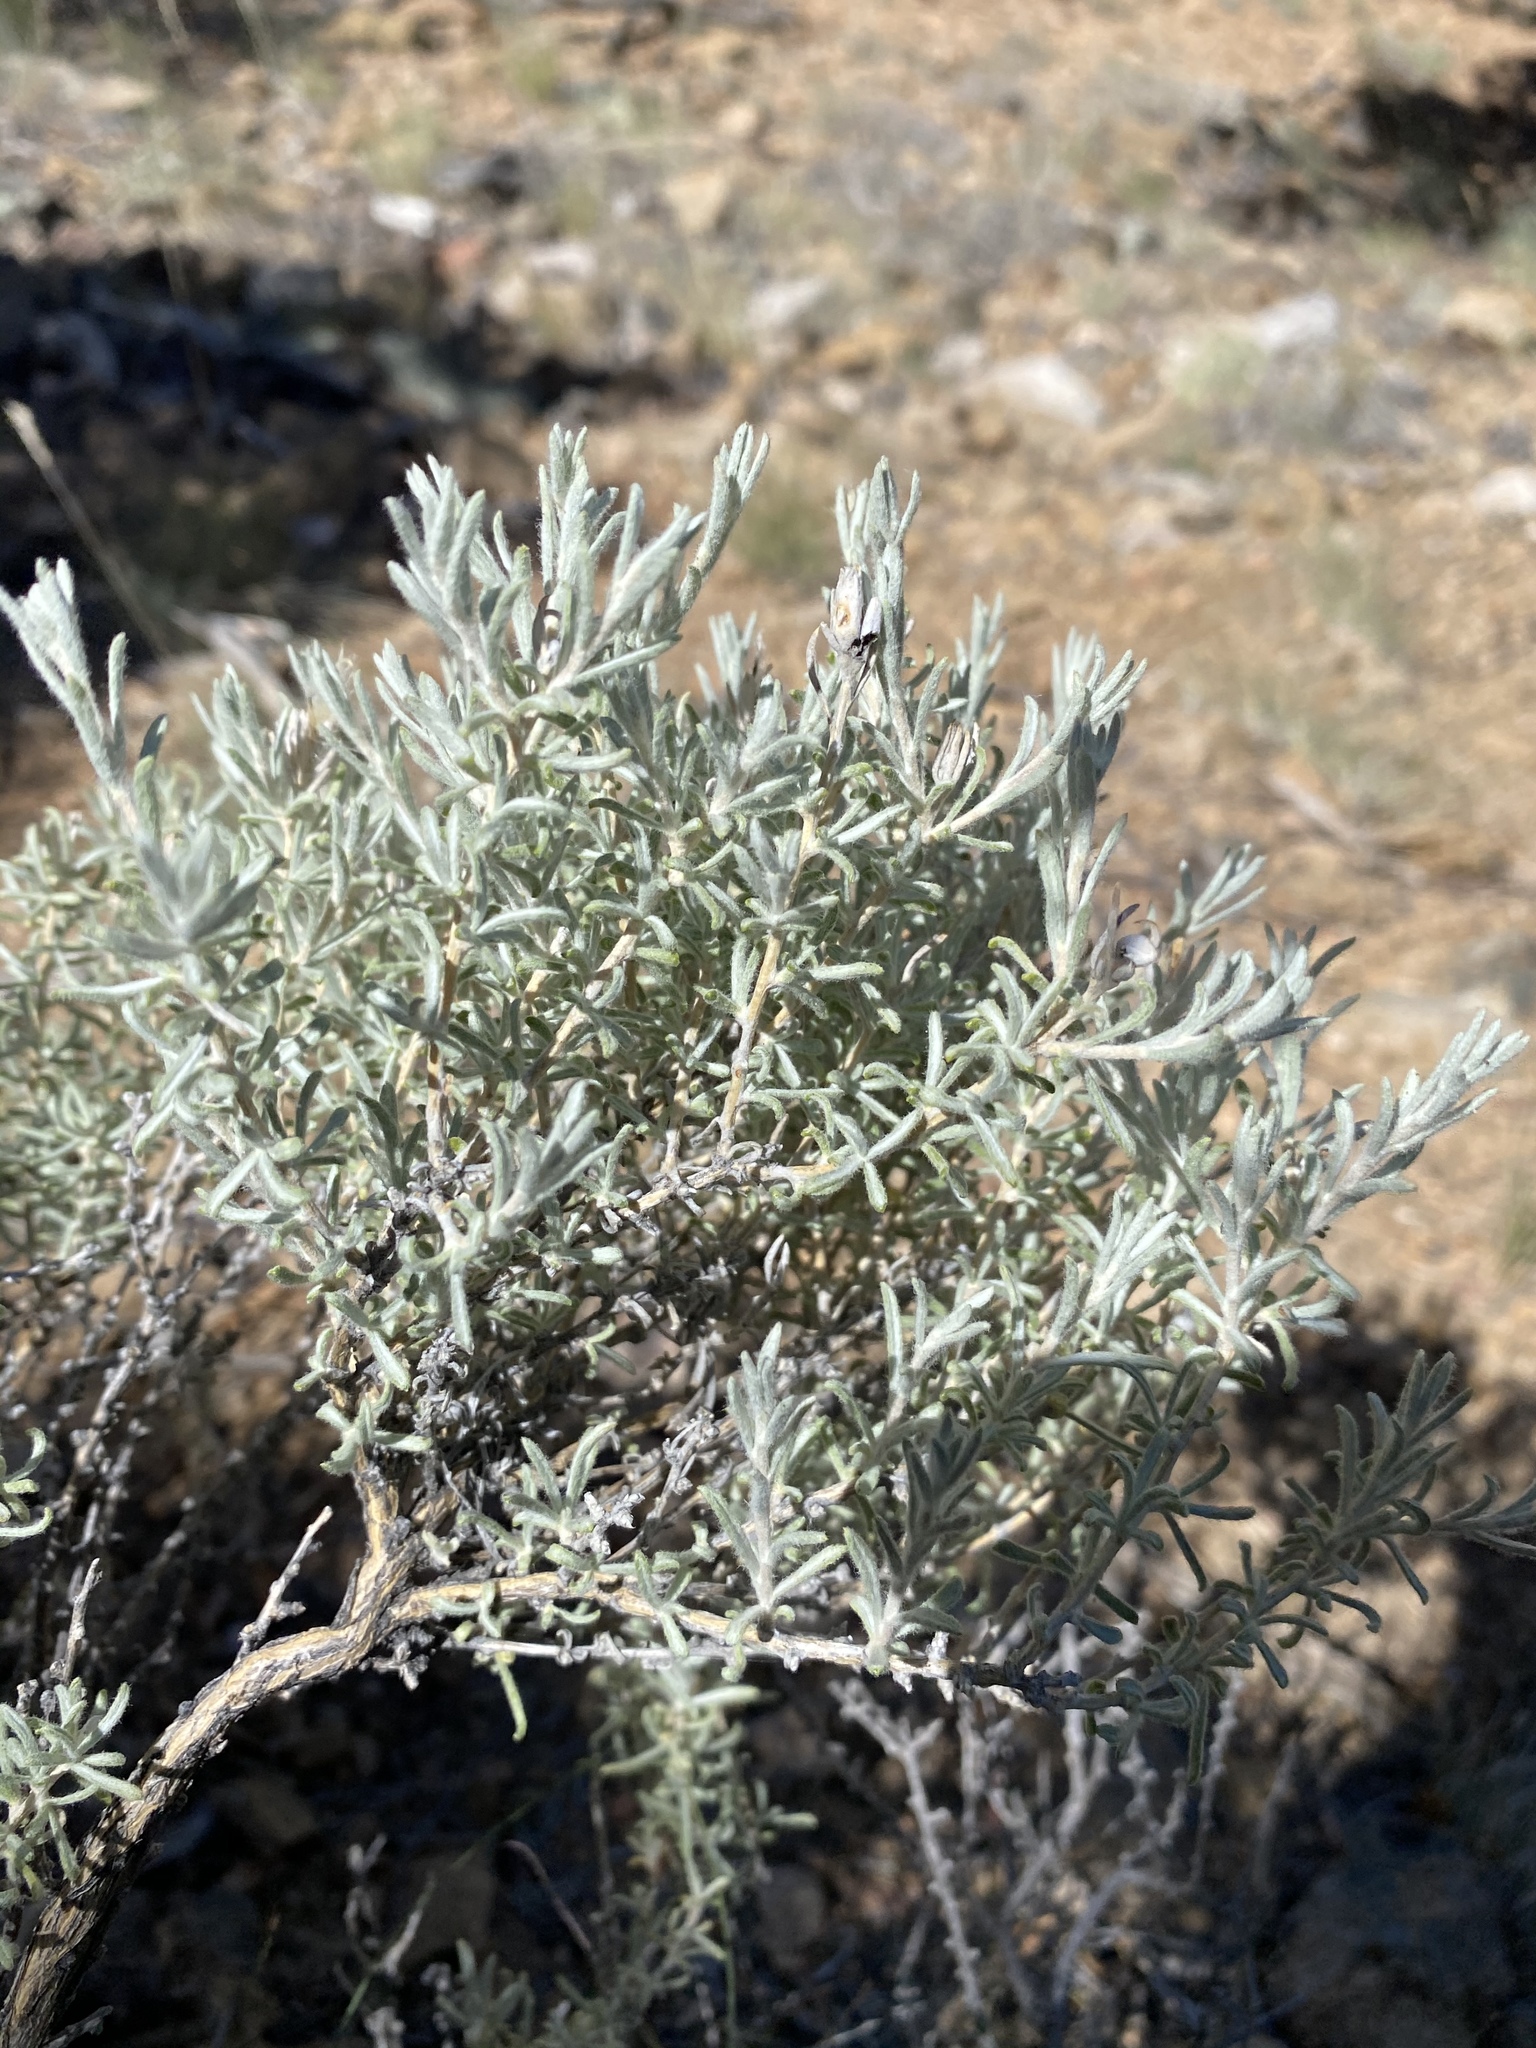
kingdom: Plantae
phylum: Tracheophyta
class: Magnoliopsida
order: Asterales
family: Asteraceae
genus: Tetradymia
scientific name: Tetradymia canescens
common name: Spineless horsebrush
